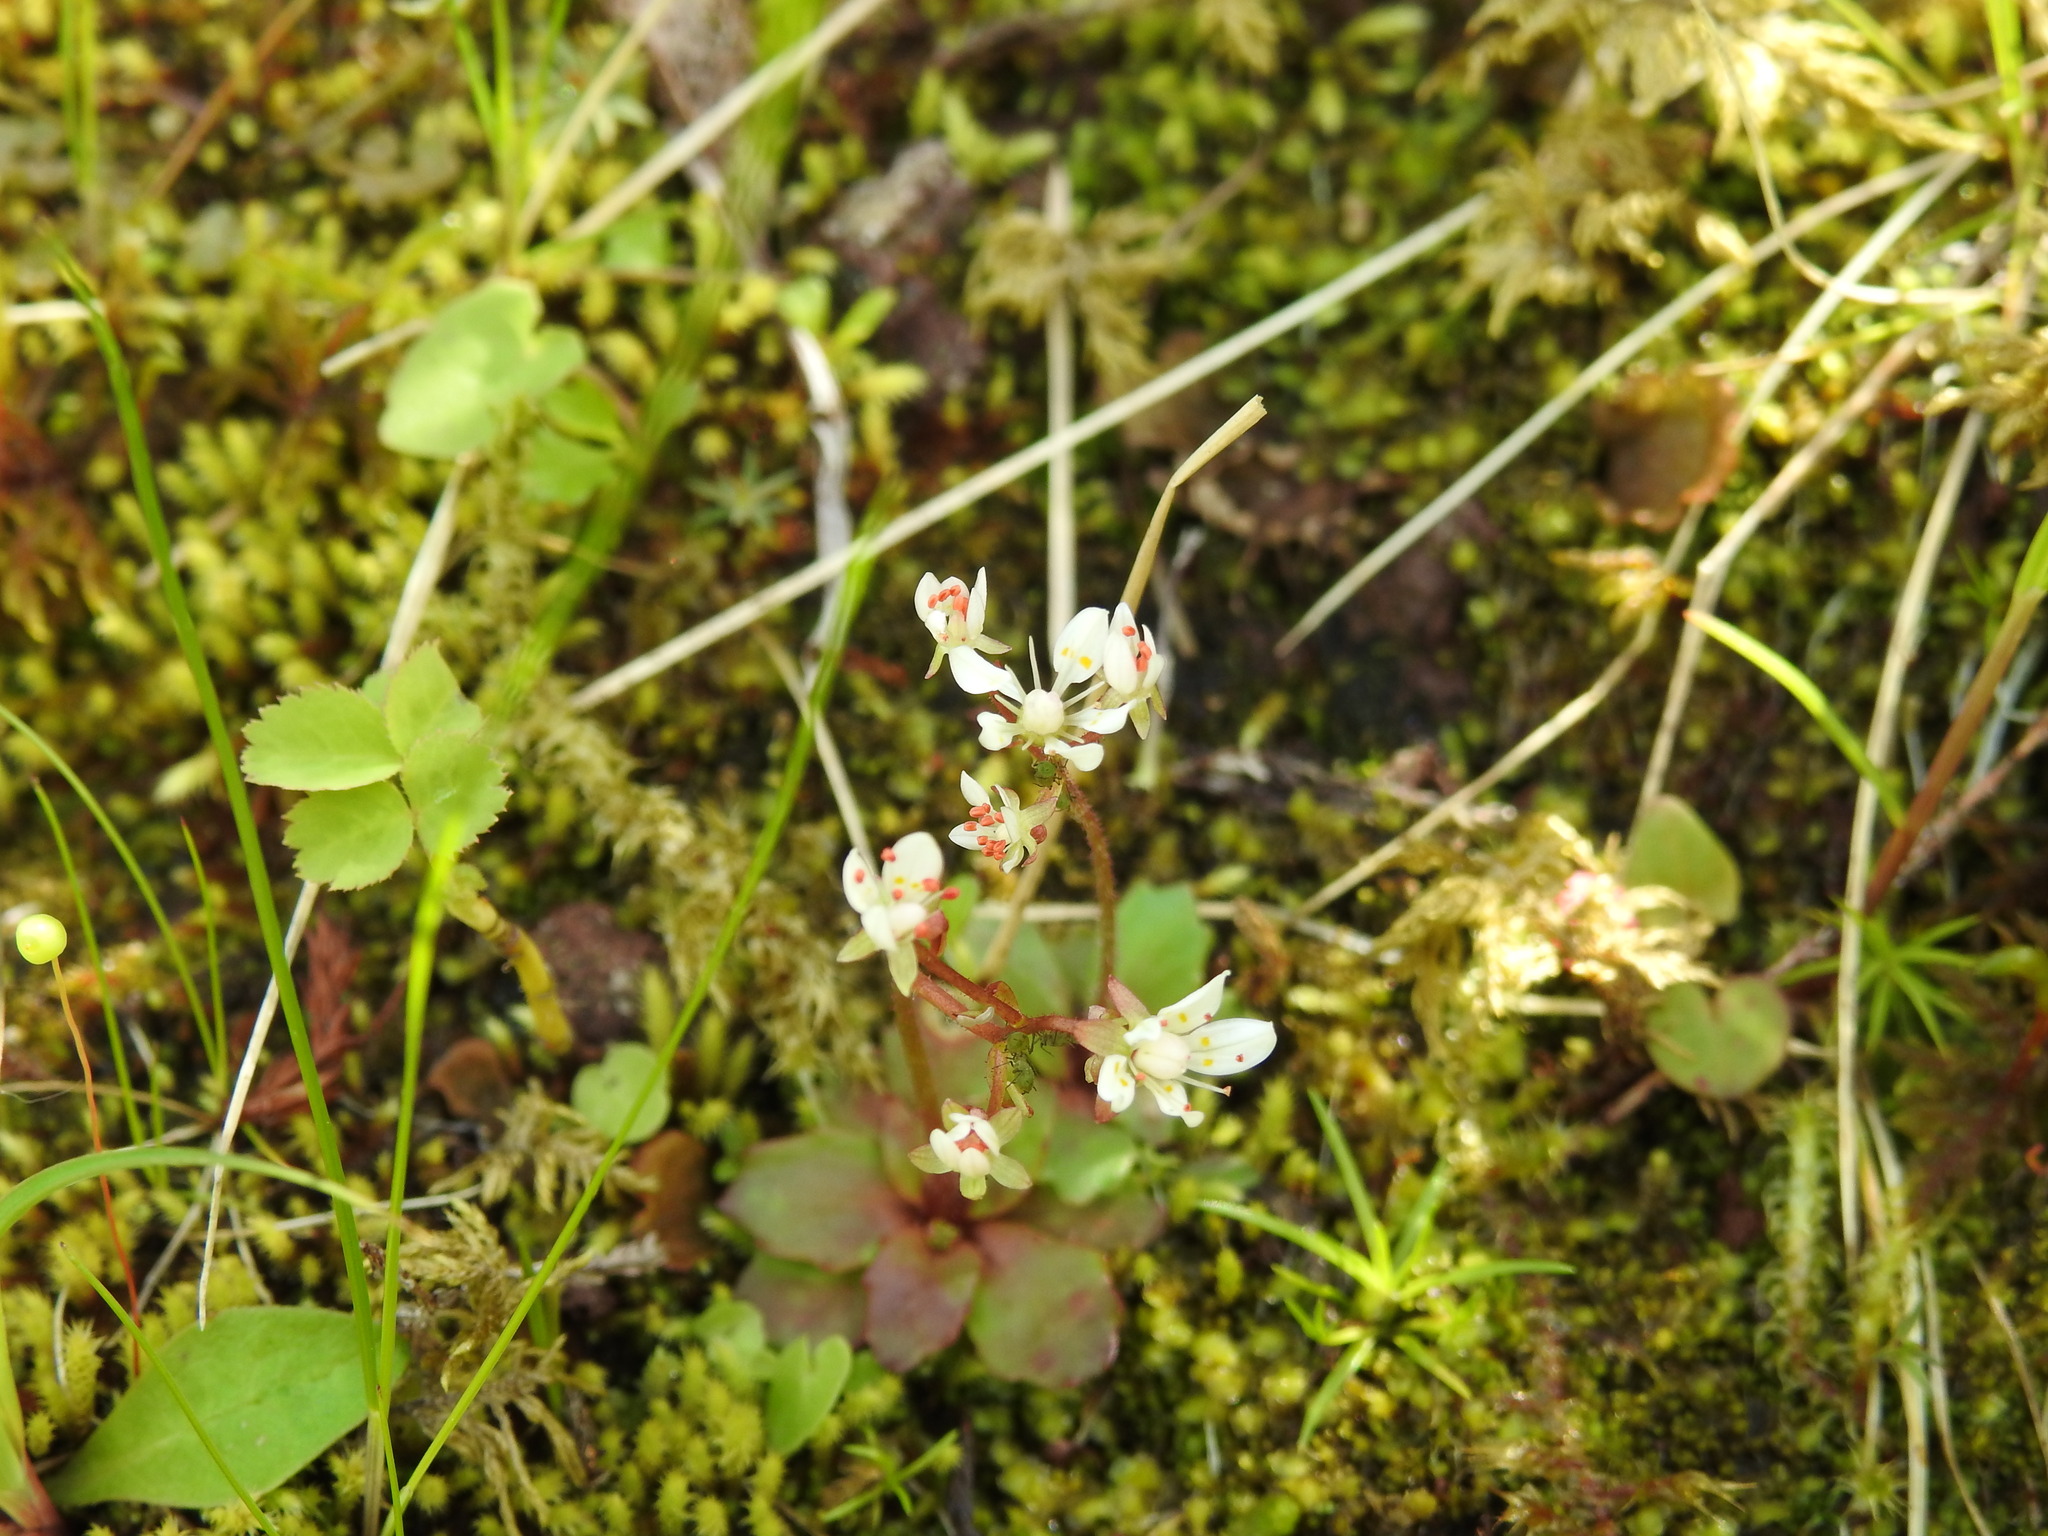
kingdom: Plantae
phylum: Tracheophyta
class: Magnoliopsida
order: Saxifragales
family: Saxifragaceae
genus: Micranthes
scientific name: Micranthes stellaris
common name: Starry saxifrage
